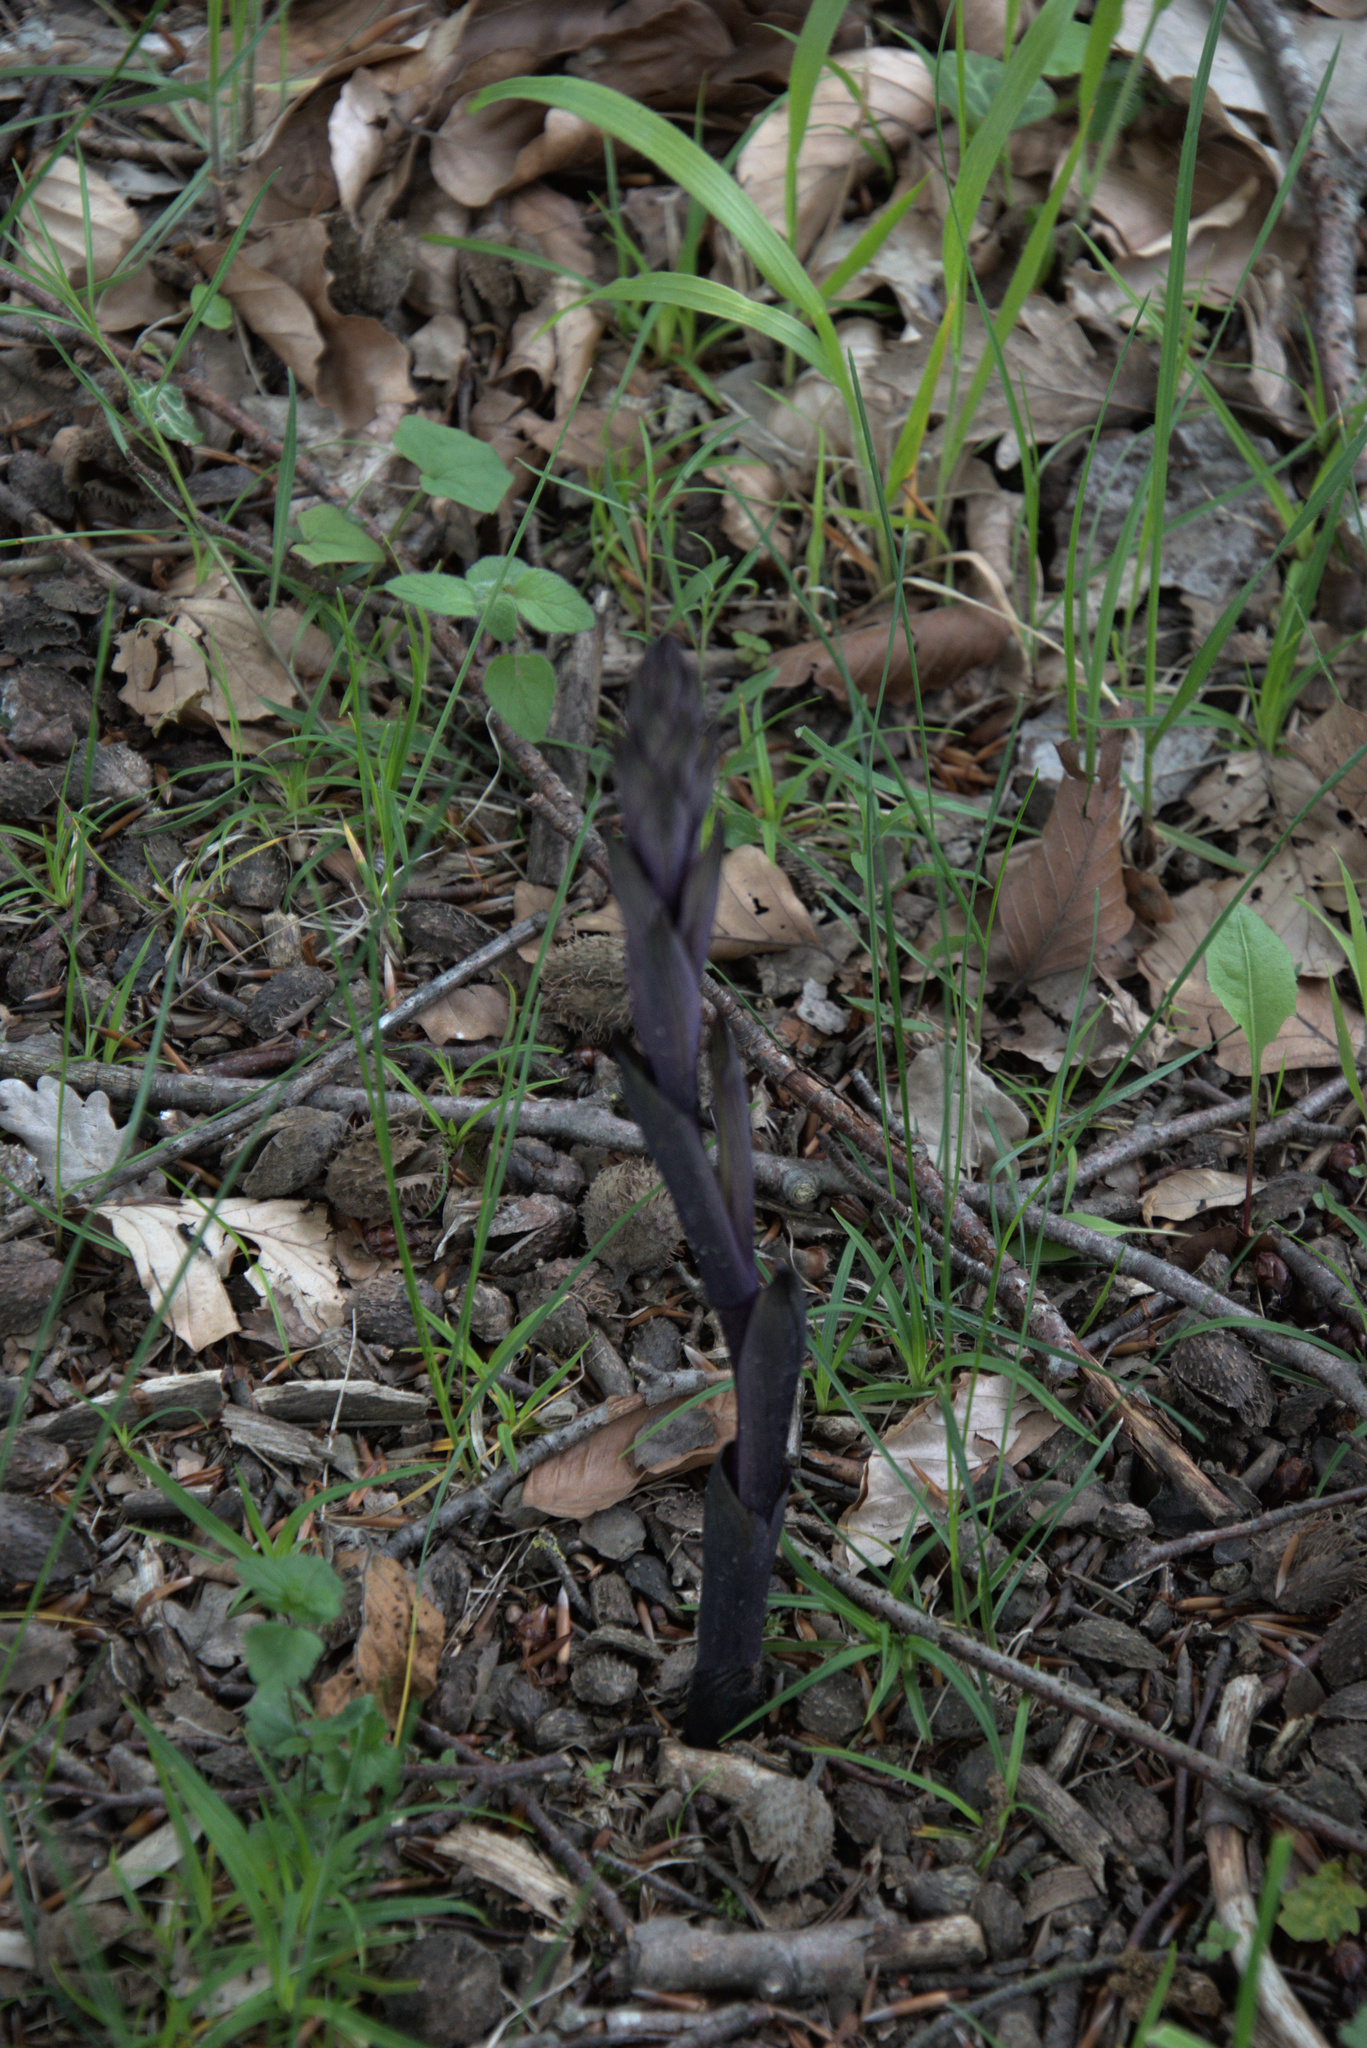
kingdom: Plantae
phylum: Tracheophyta
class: Liliopsida
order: Asparagales
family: Orchidaceae
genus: Limodorum
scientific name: Limodorum abortivum
